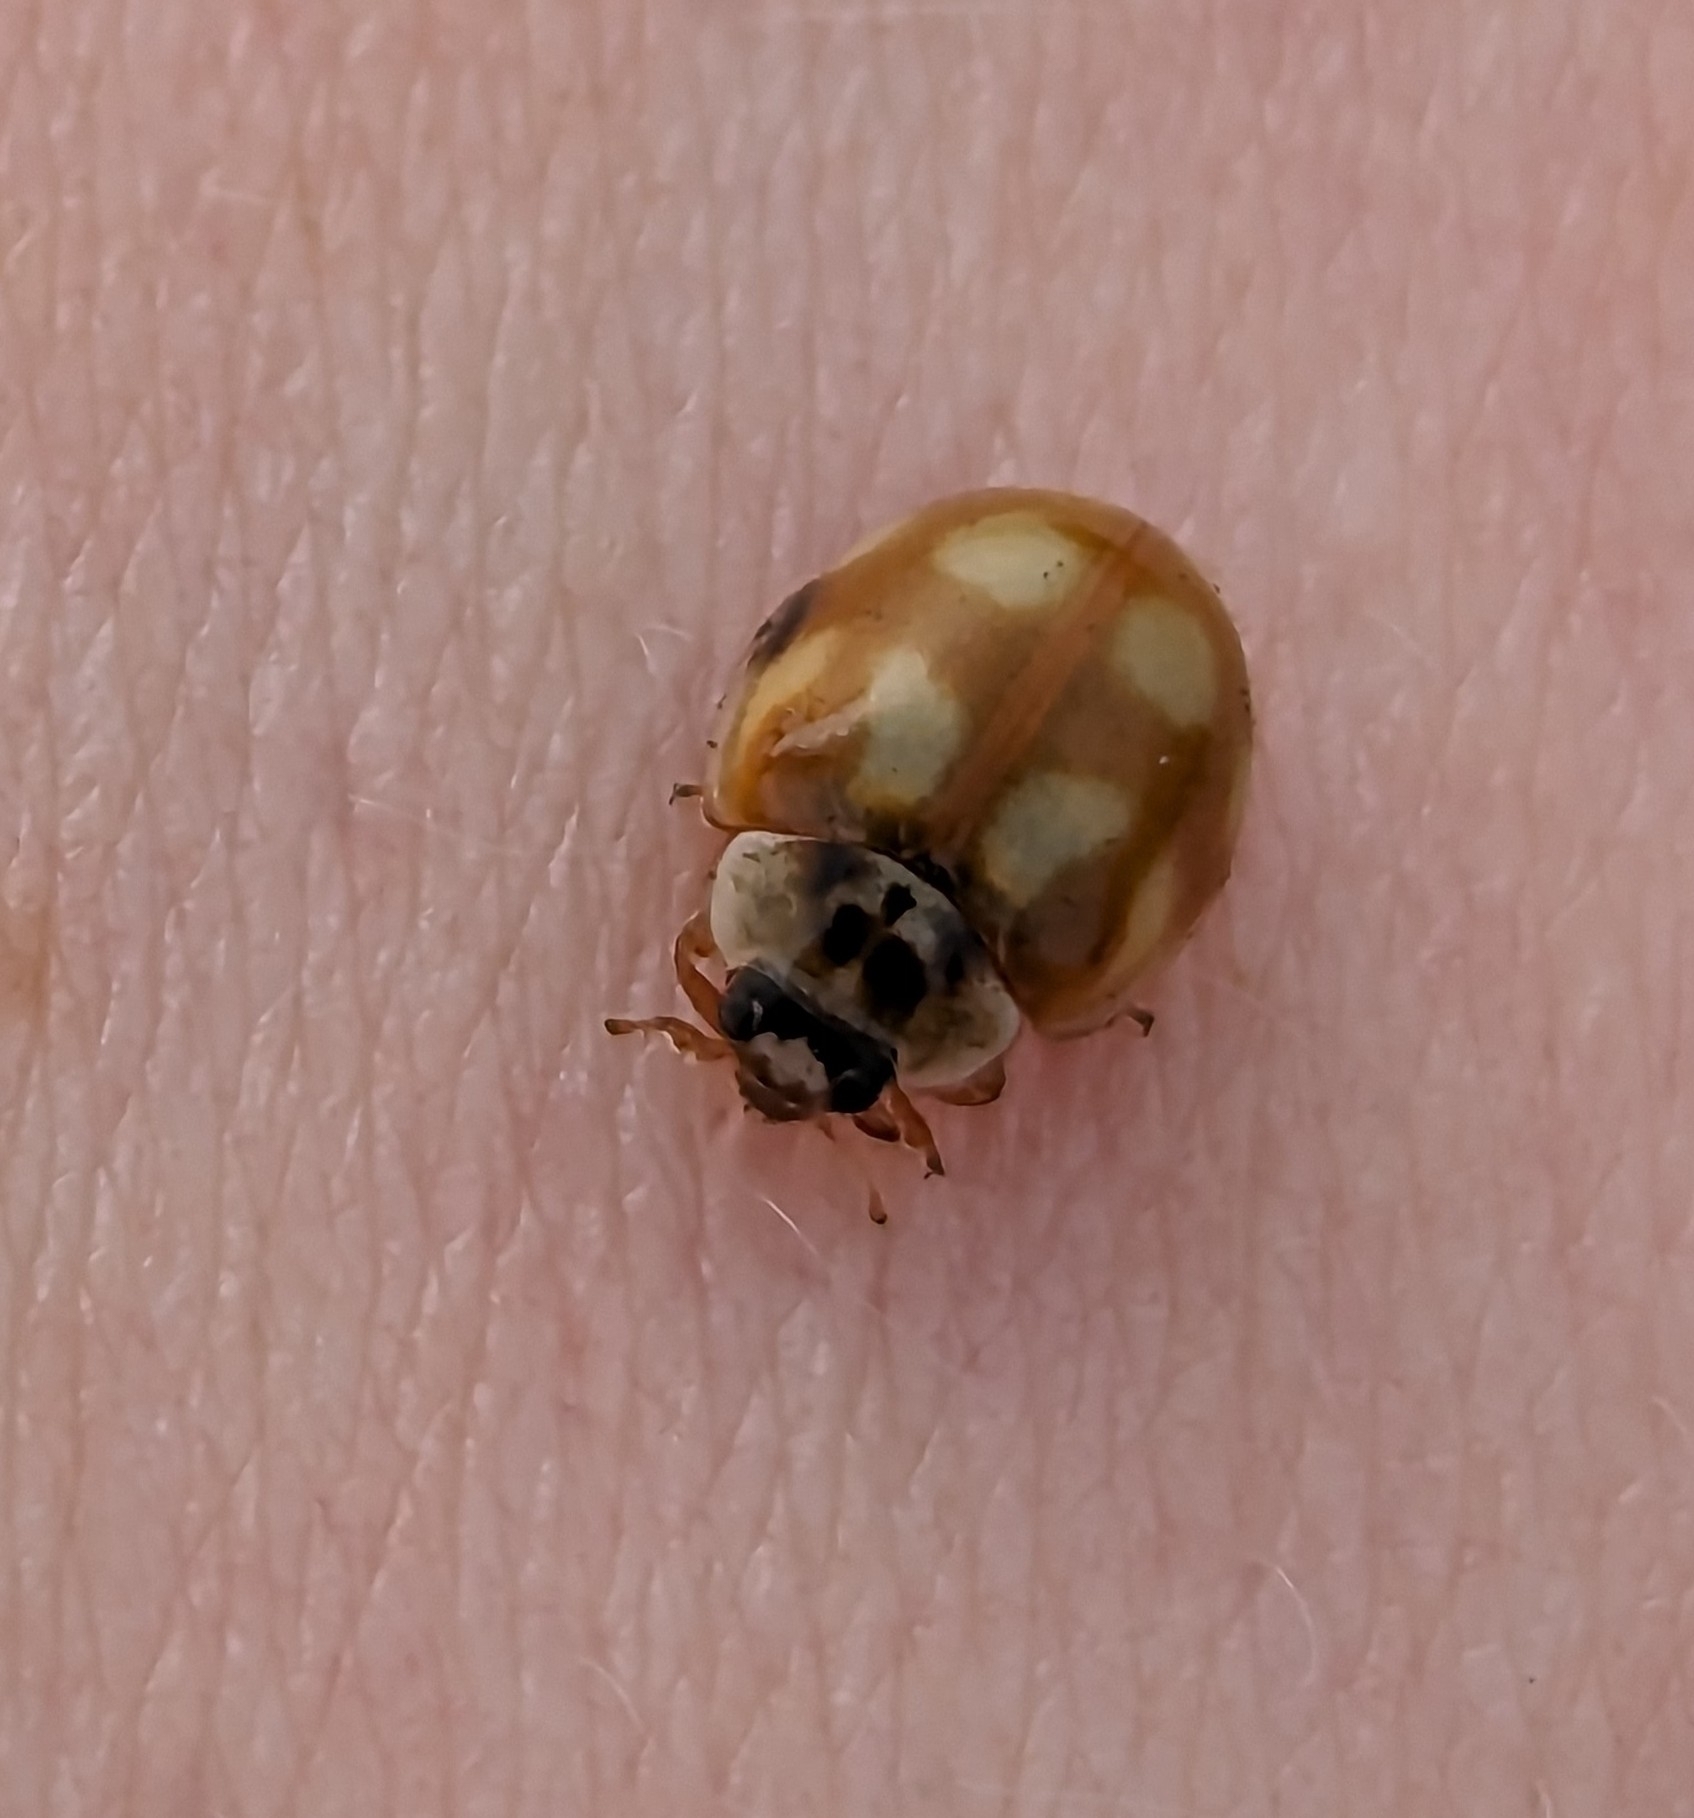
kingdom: Animalia
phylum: Arthropoda
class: Insecta
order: Coleoptera
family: Coccinellidae
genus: Adalia
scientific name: Adalia decempunctata
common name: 10-spot ladybird
